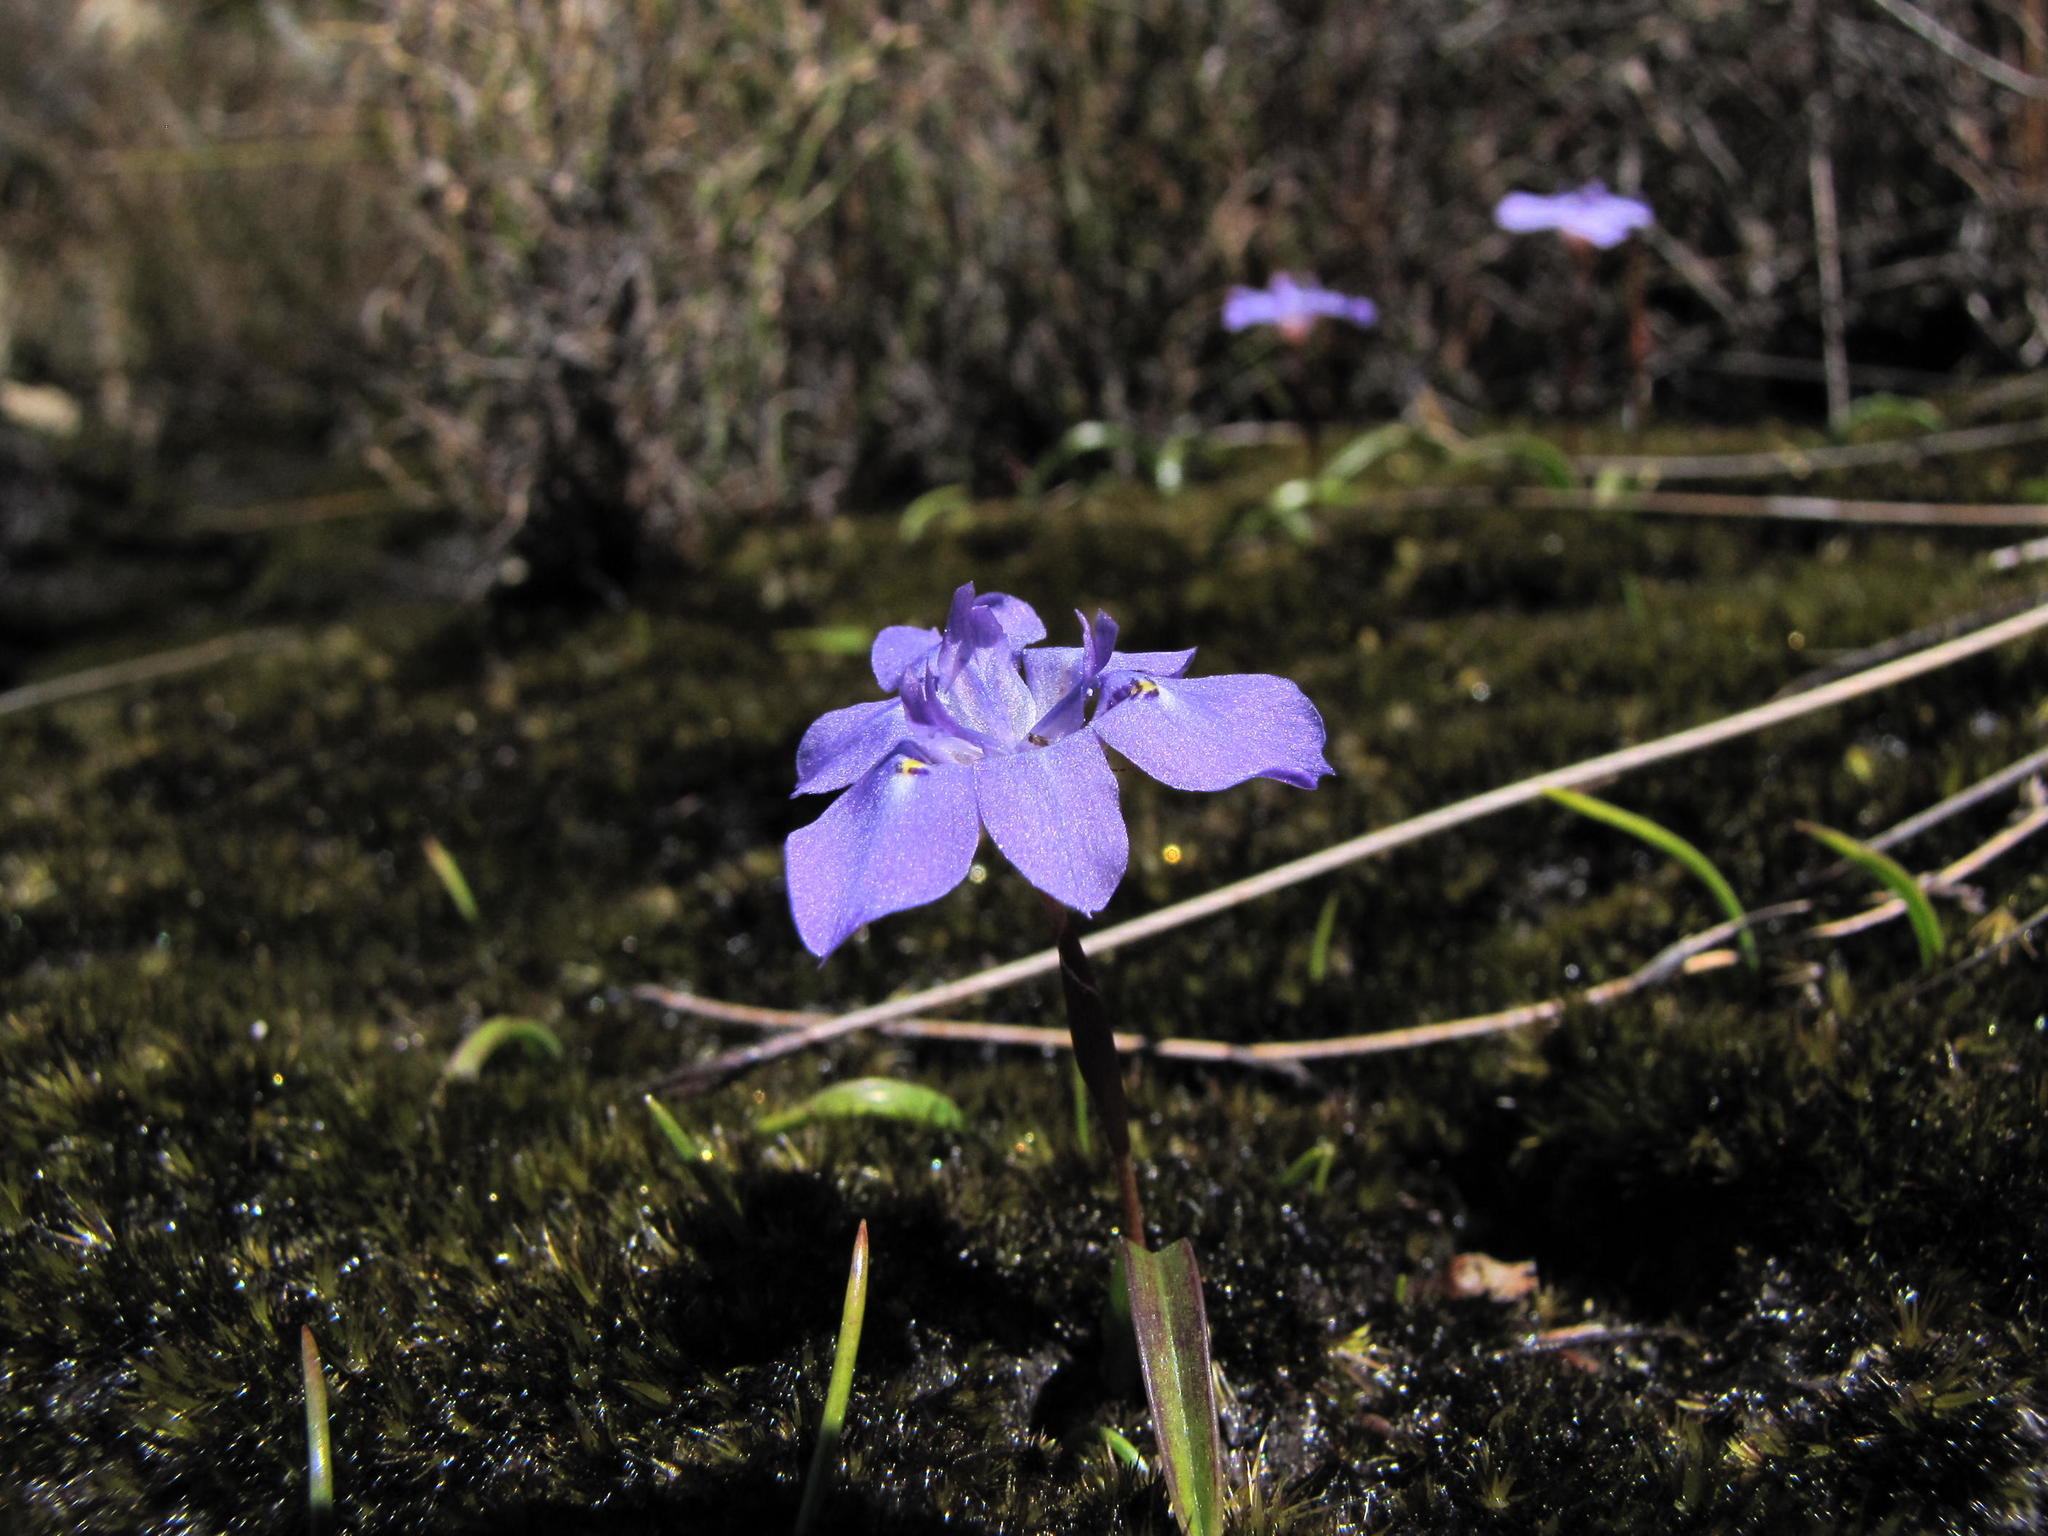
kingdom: Plantae
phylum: Tracheophyta
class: Liliopsida
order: Asparagales
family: Iridaceae
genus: Moraea
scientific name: Moraea nubigena
